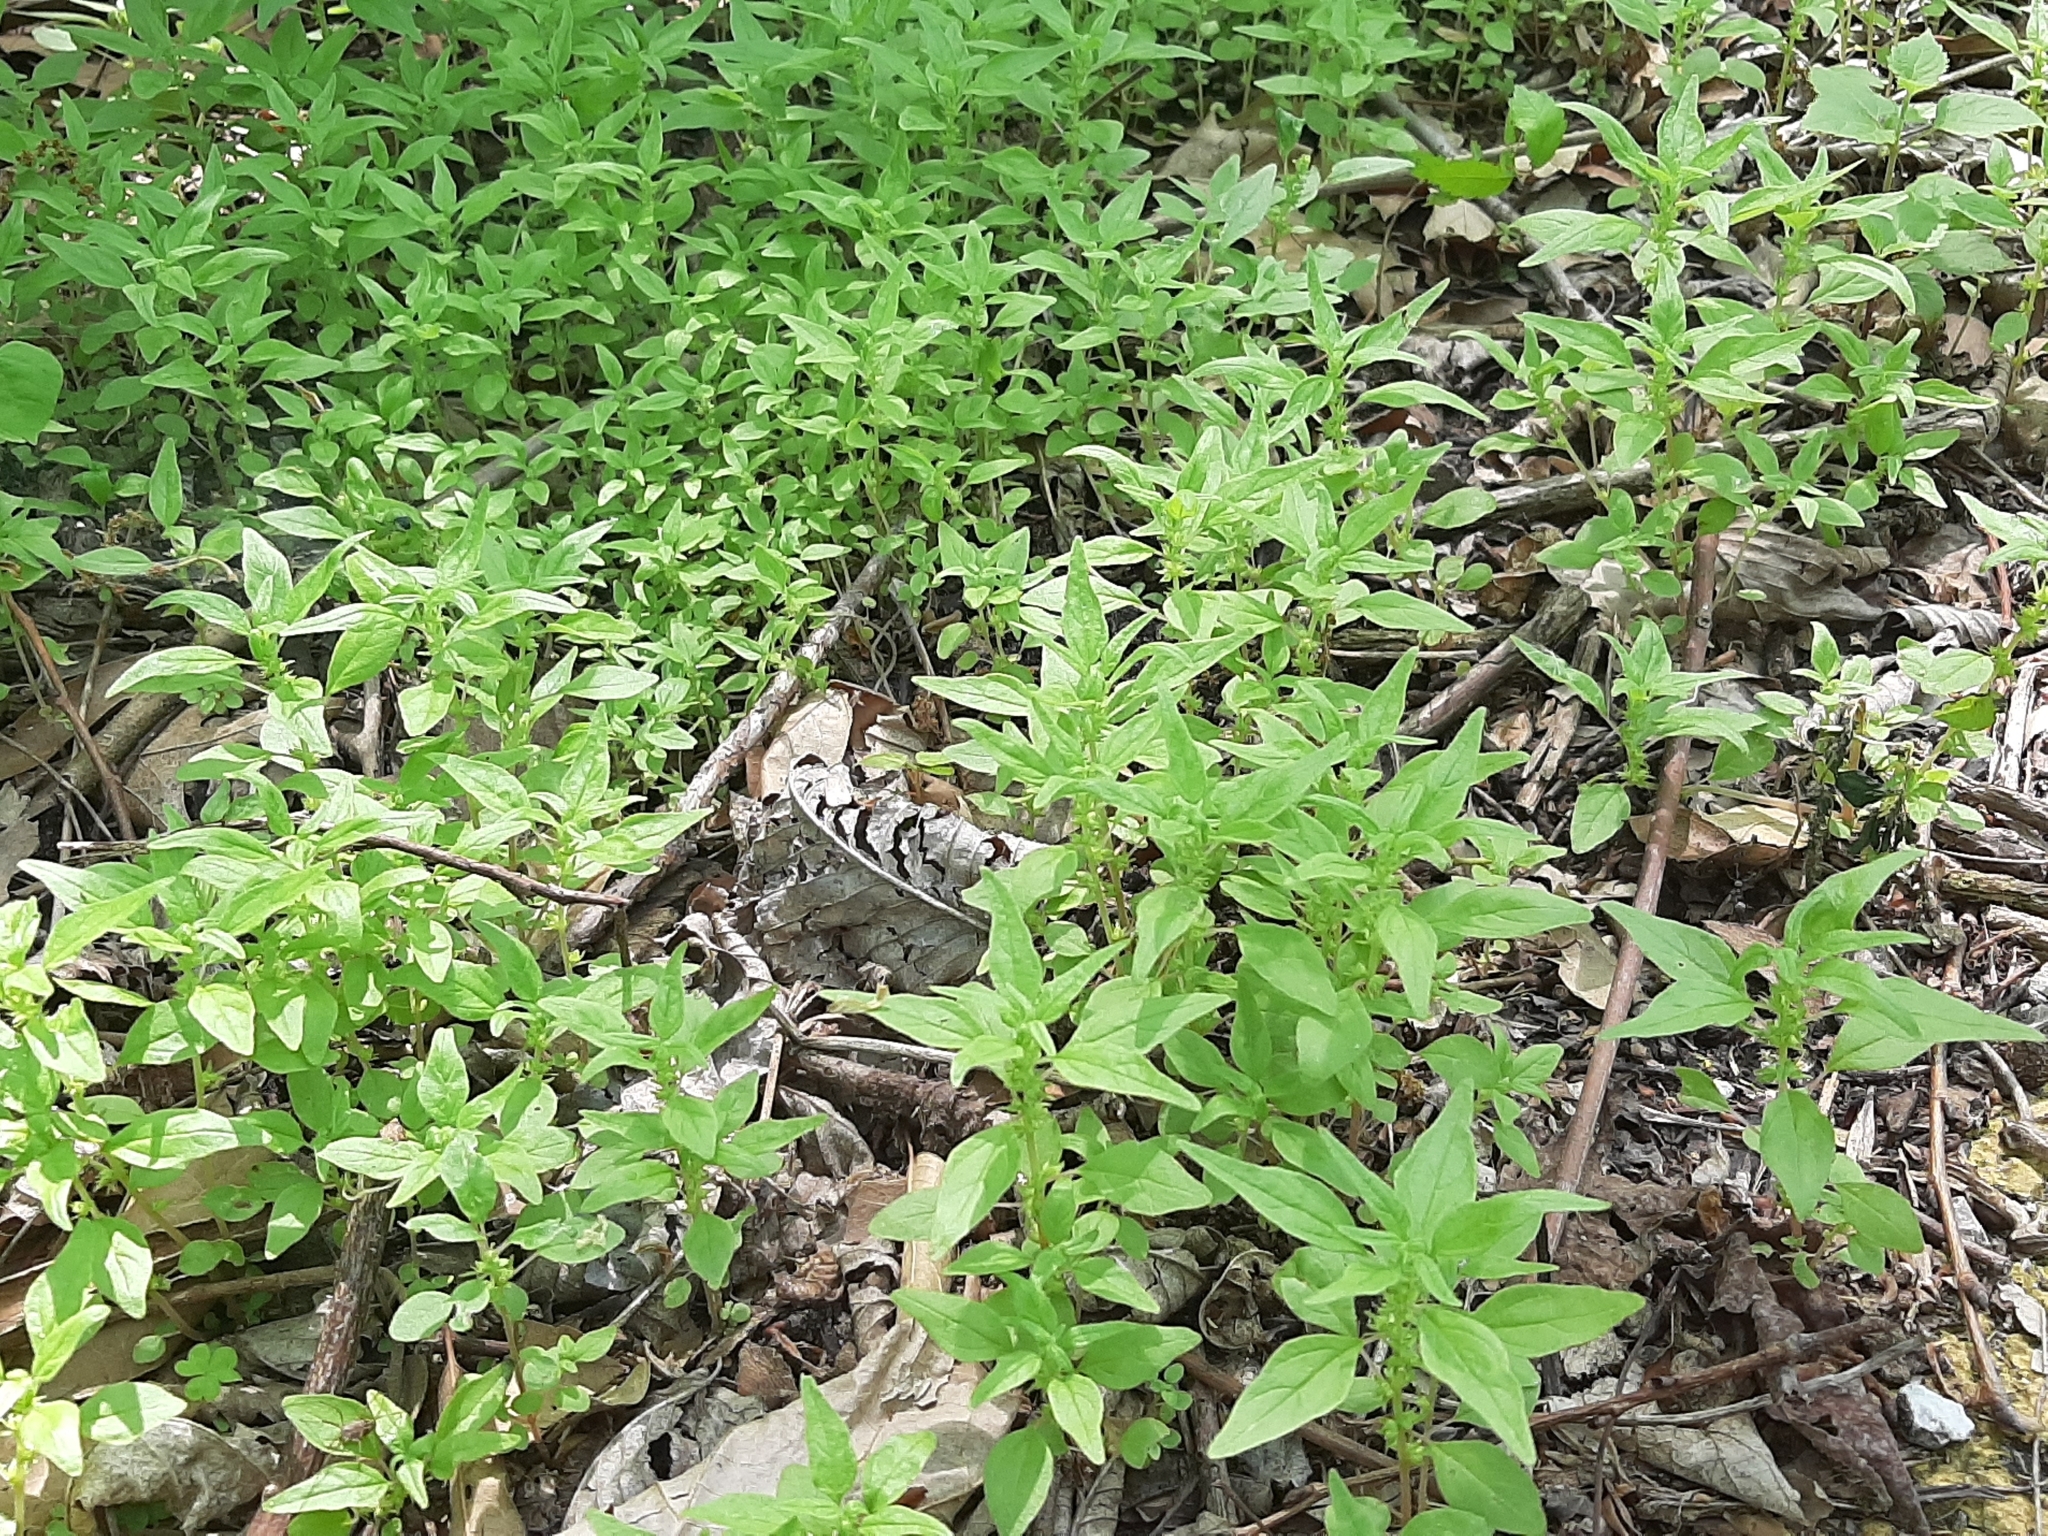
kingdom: Plantae
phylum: Tracheophyta
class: Magnoliopsida
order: Rosales
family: Urticaceae
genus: Parietaria
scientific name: Parietaria pensylvanica
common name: Pennsylvania pellitory
